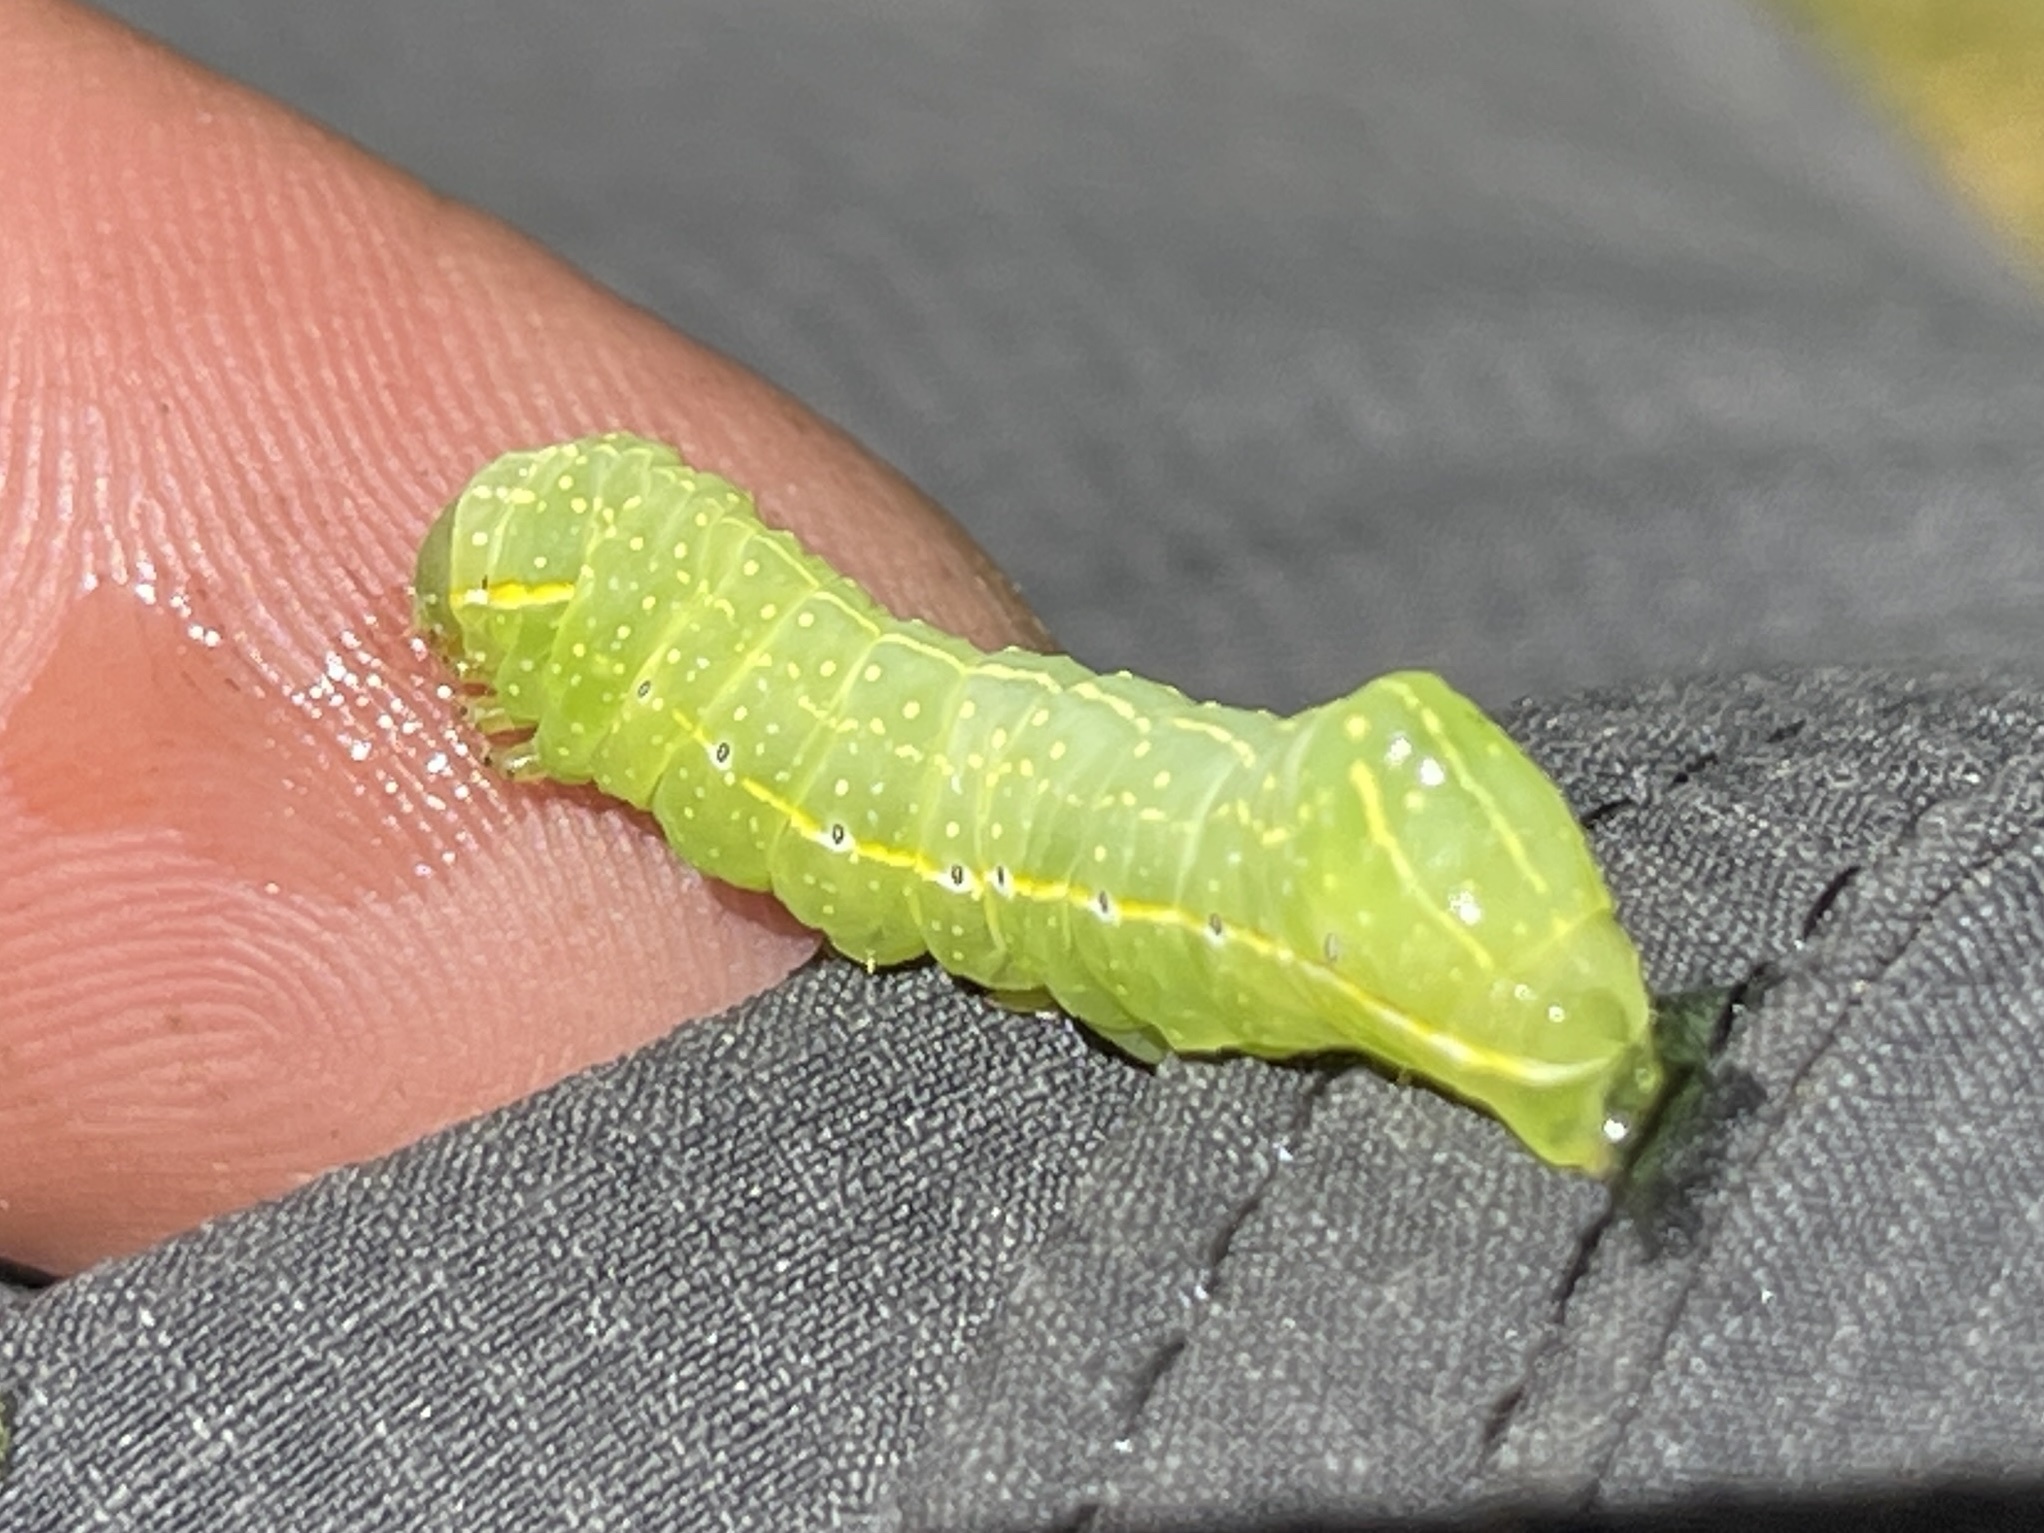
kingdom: Animalia
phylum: Arthropoda
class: Insecta
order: Lepidoptera
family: Noctuidae
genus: Amphipyra
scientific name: Amphipyra pyramidoides
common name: American copper underwing
